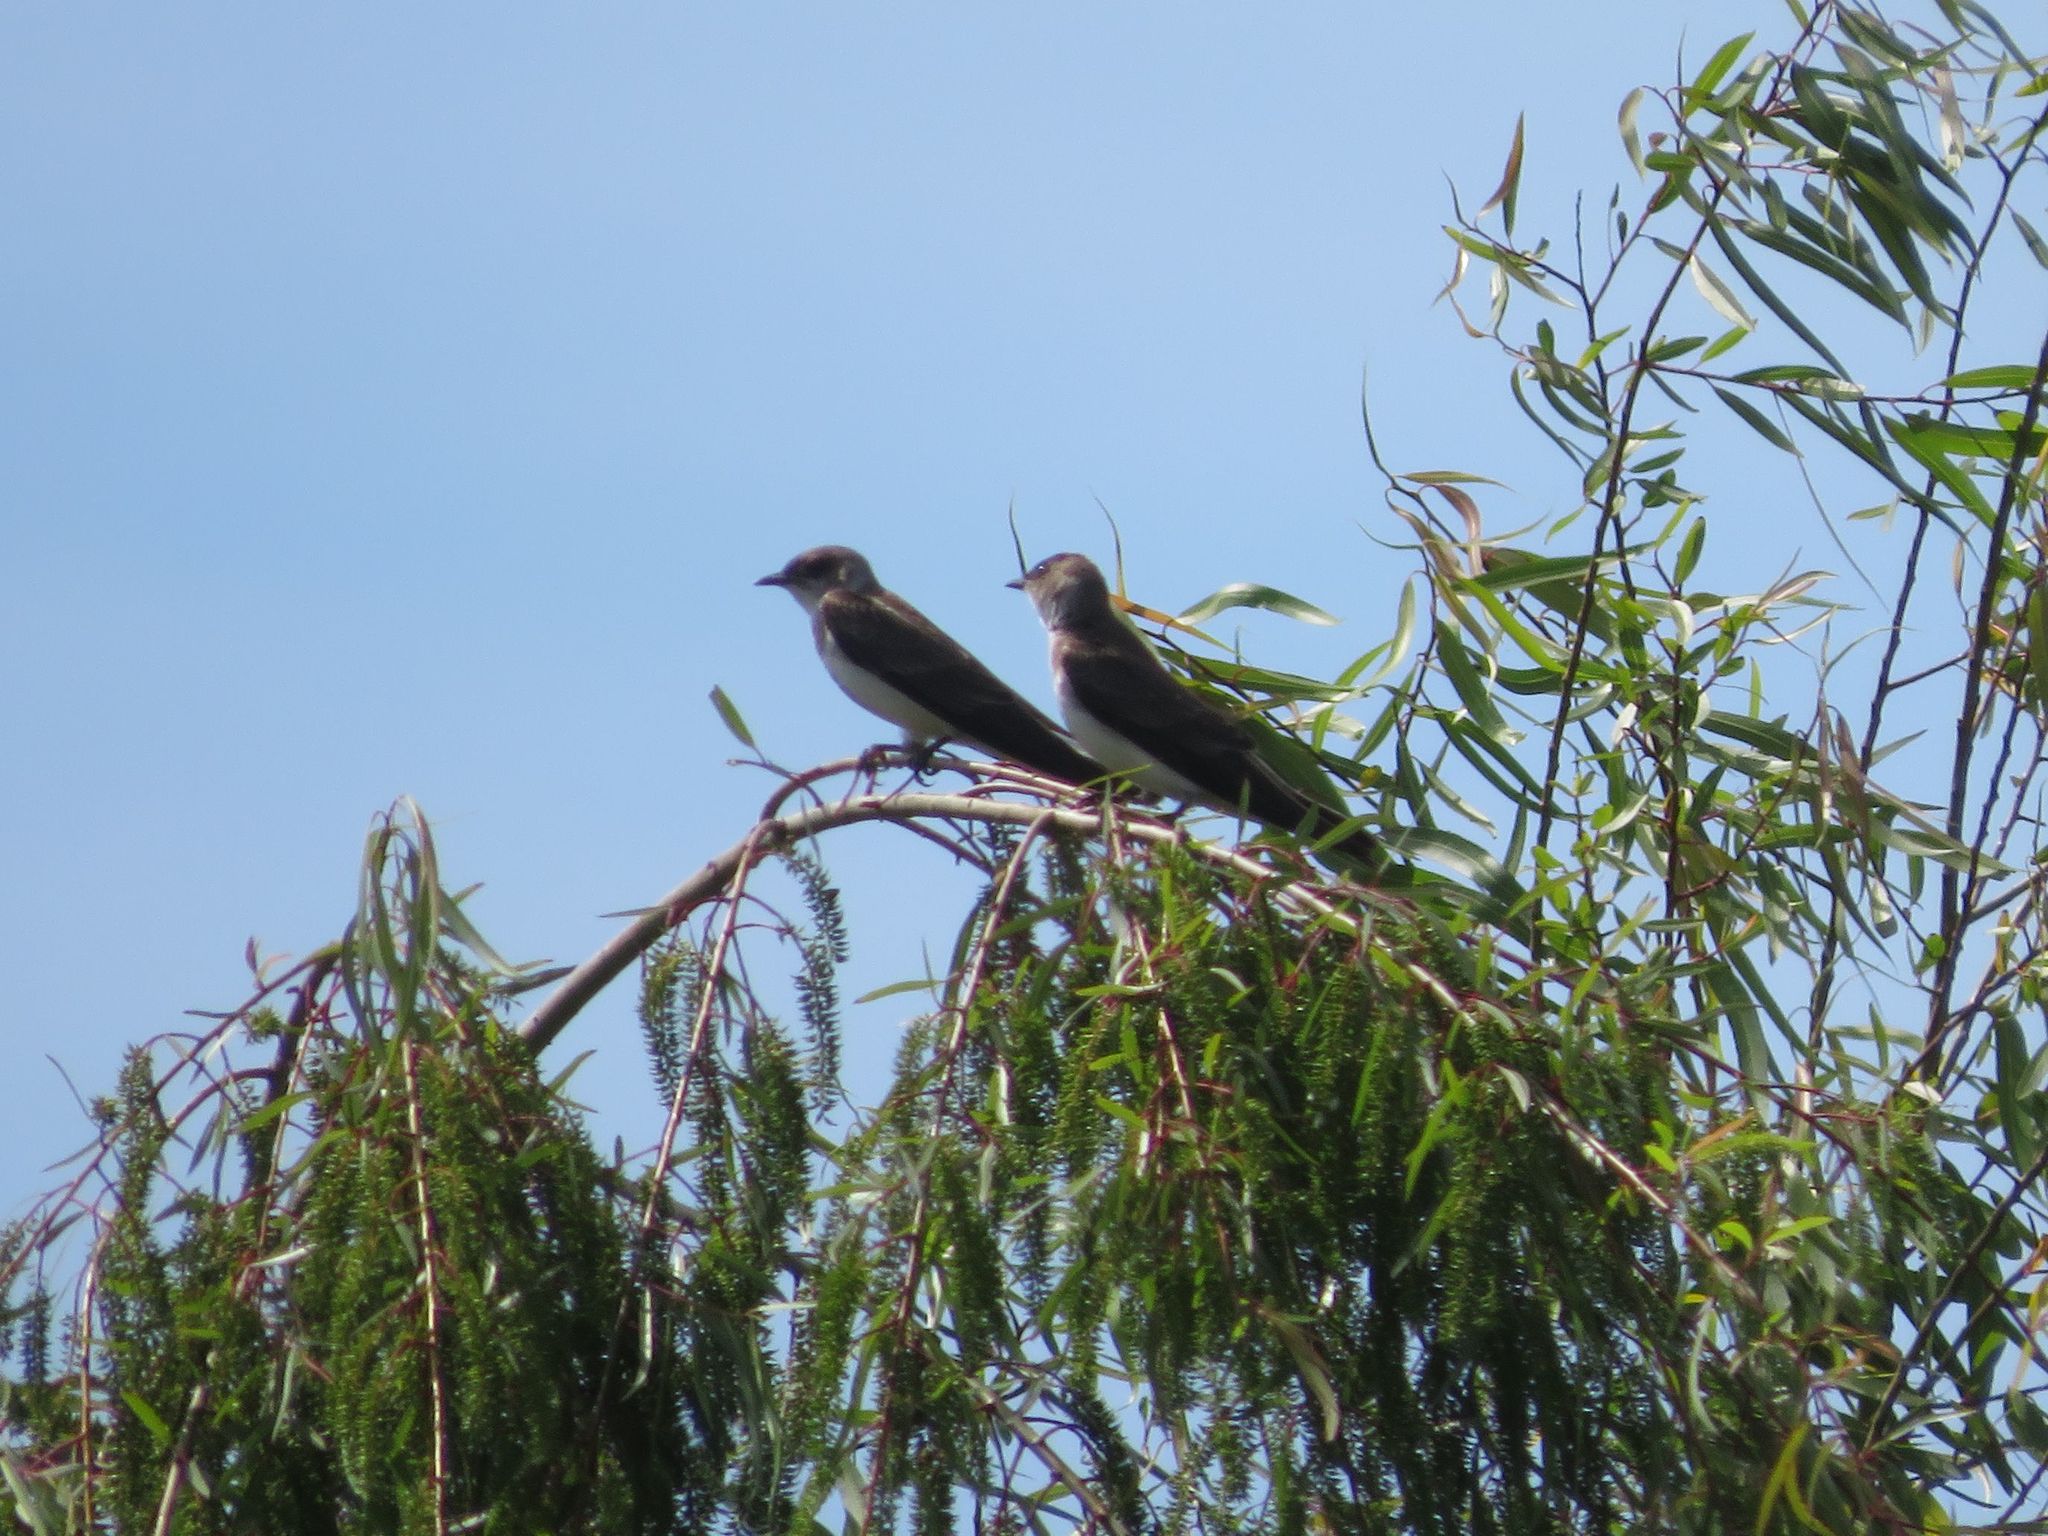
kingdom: Animalia
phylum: Chordata
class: Aves
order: Passeriformes
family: Hirundinidae
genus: Progne
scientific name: Progne tapera
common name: Brown-chested martin
